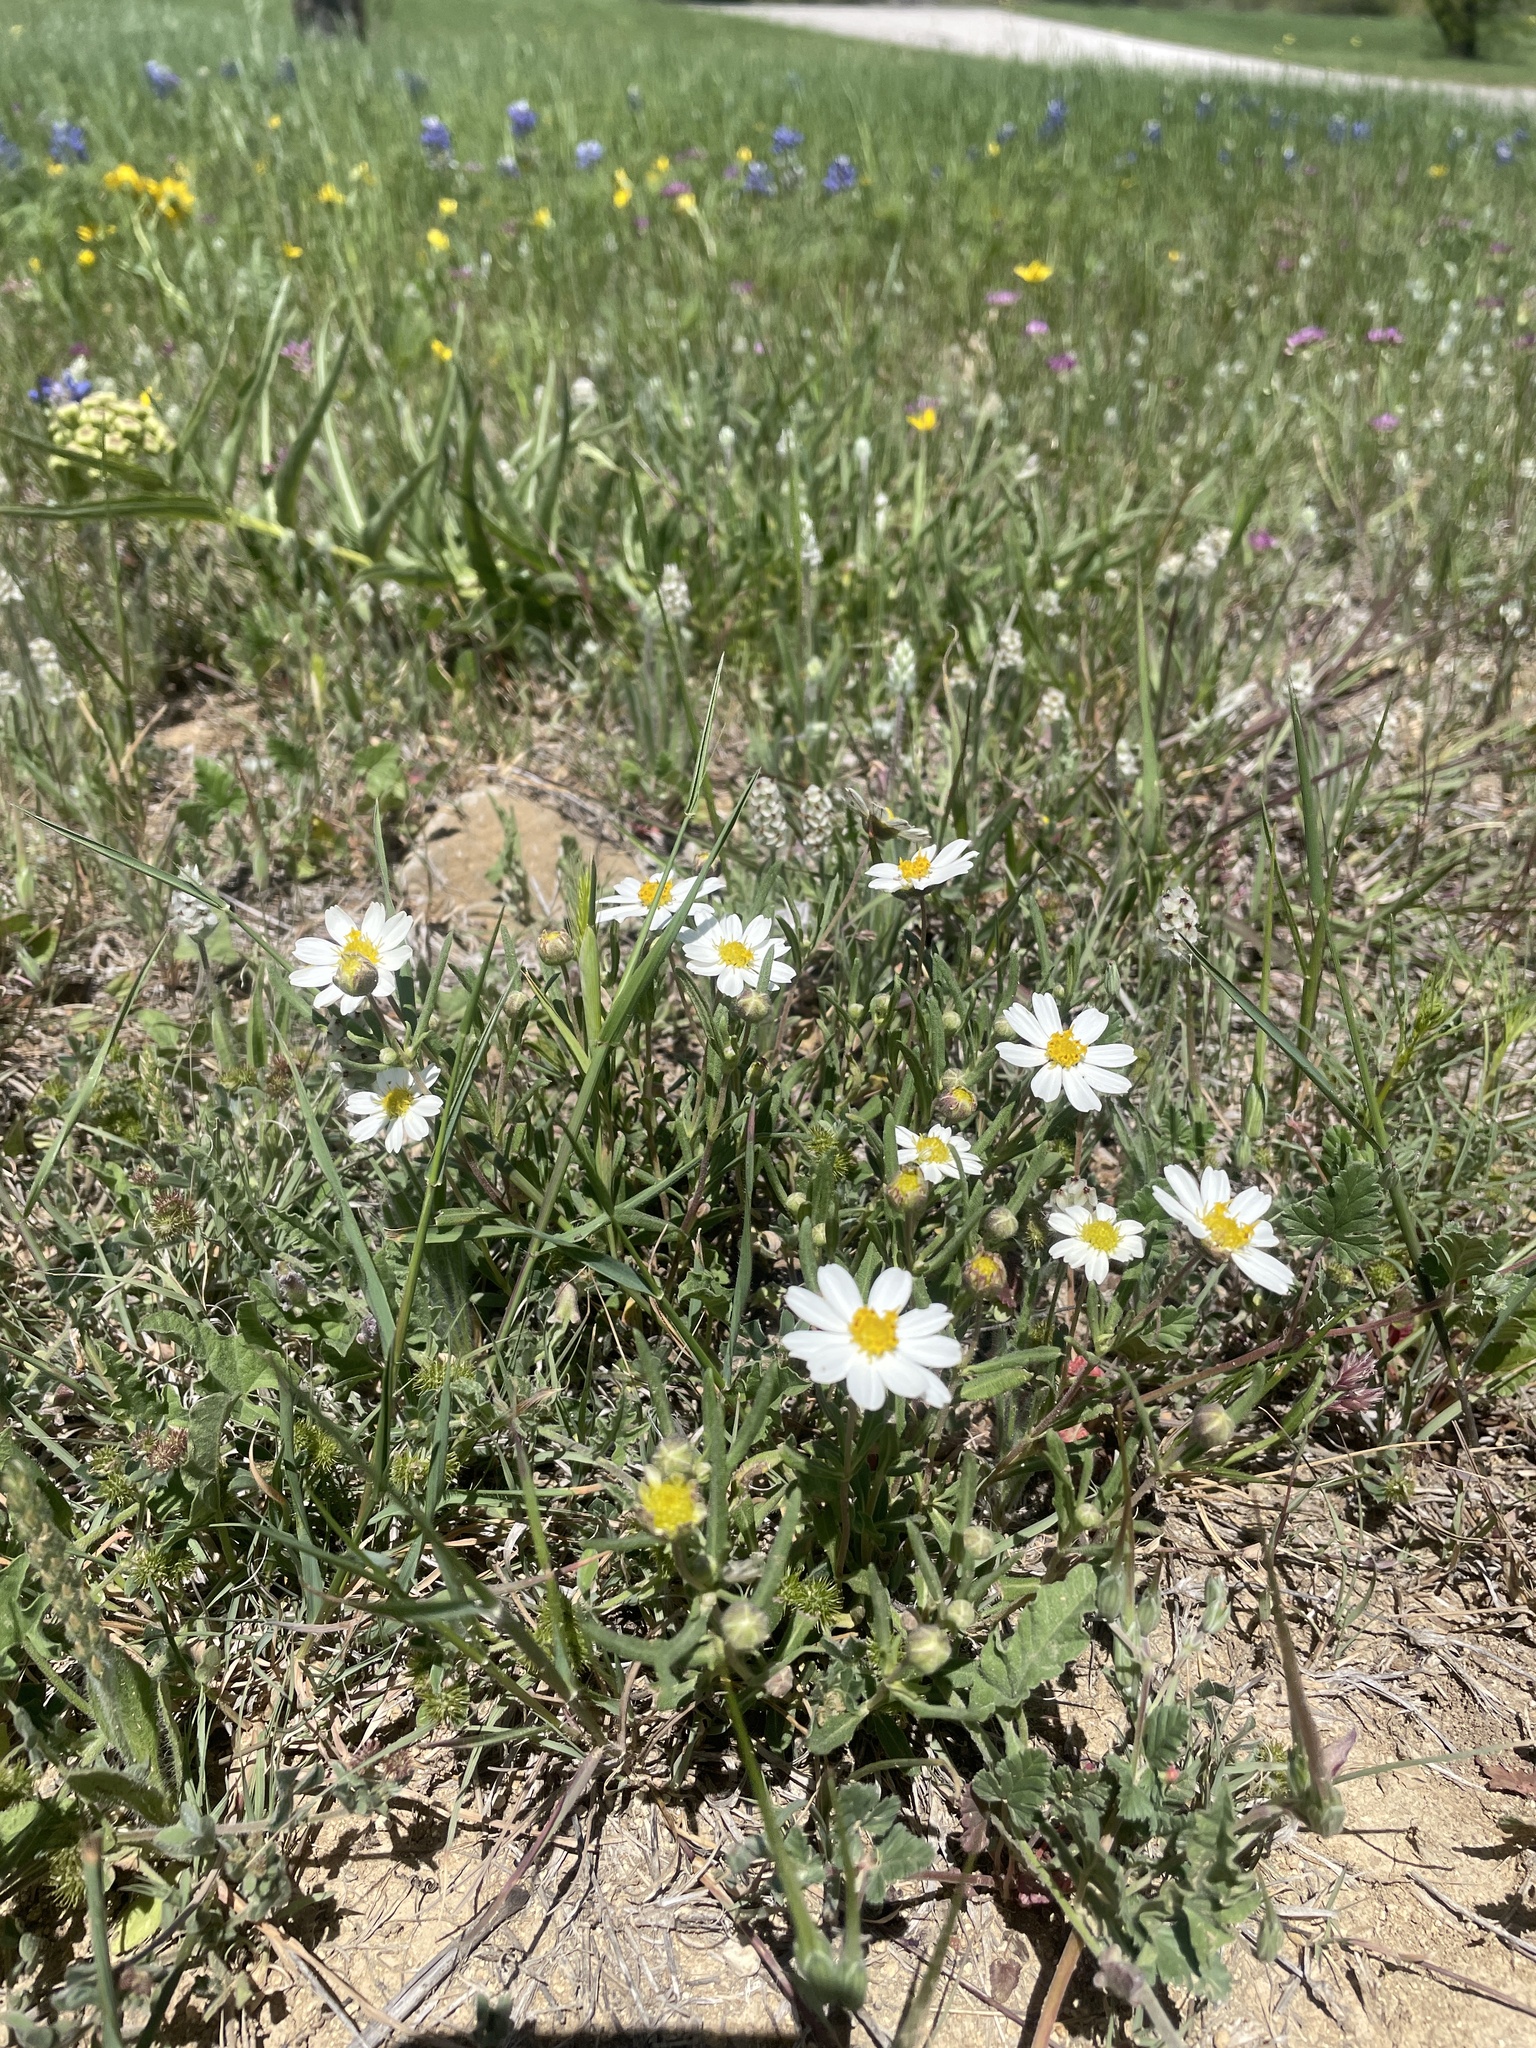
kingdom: Plantae
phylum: Tracheophyta
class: Magnoliopsida
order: Asterales
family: Asteraceae
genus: Melampodium
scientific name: Melampodium leucanthum
